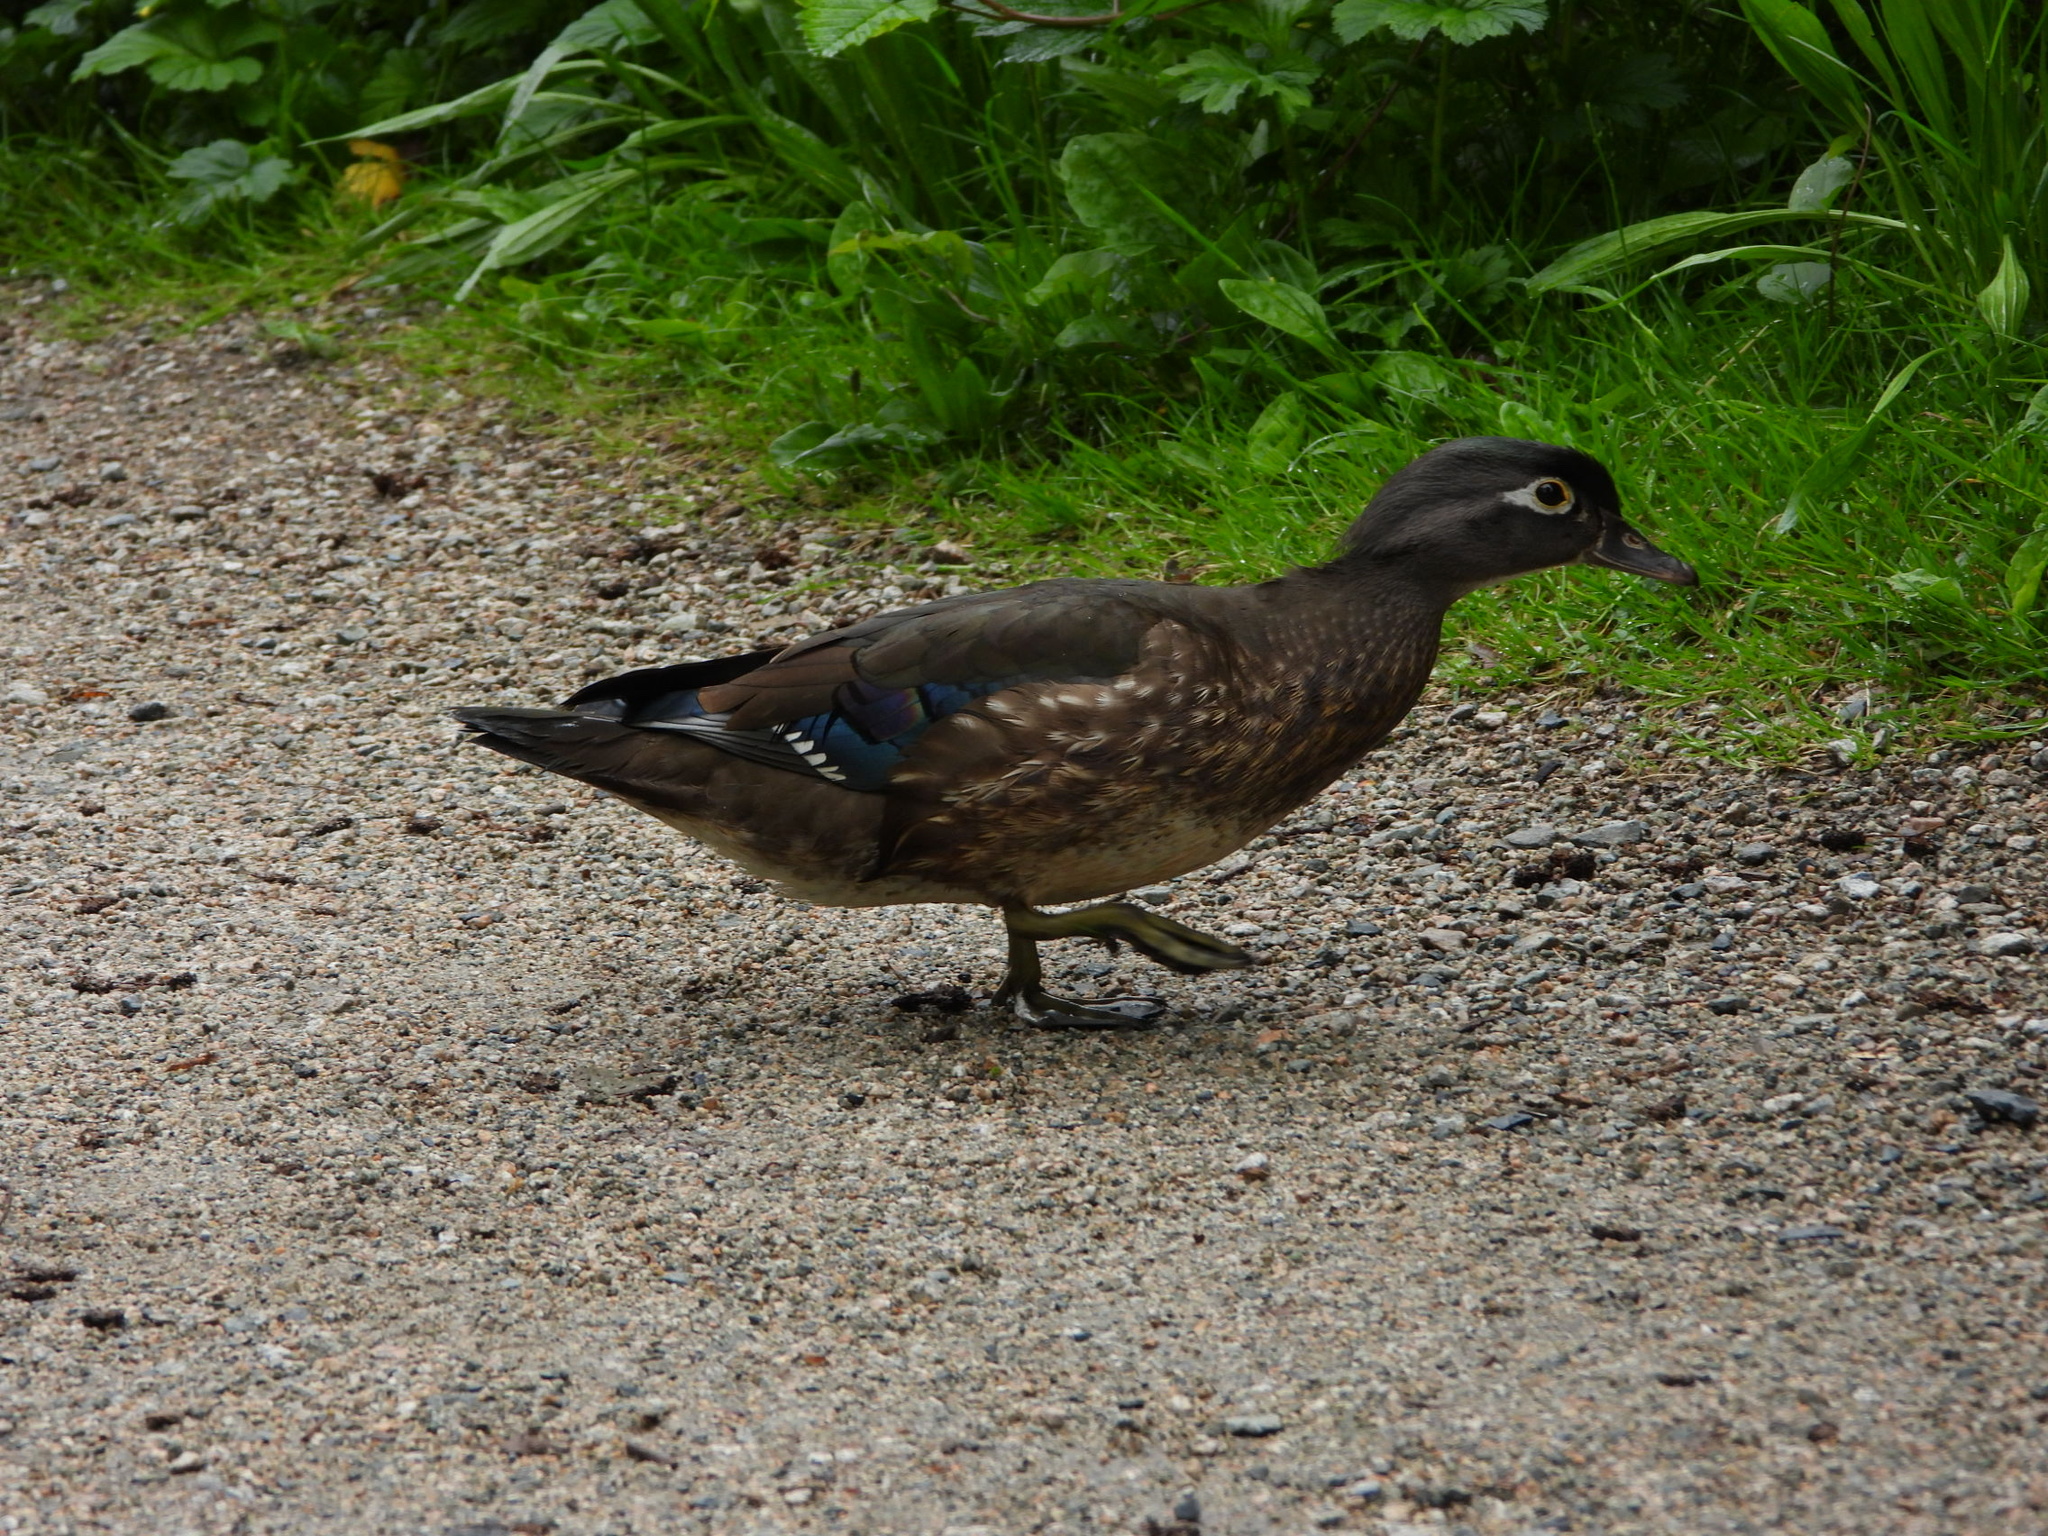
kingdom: Animalia
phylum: Chordata
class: Aves
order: Anseriformes
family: Anatidae
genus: Aix
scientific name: Aix sponsa
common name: Wood duck
